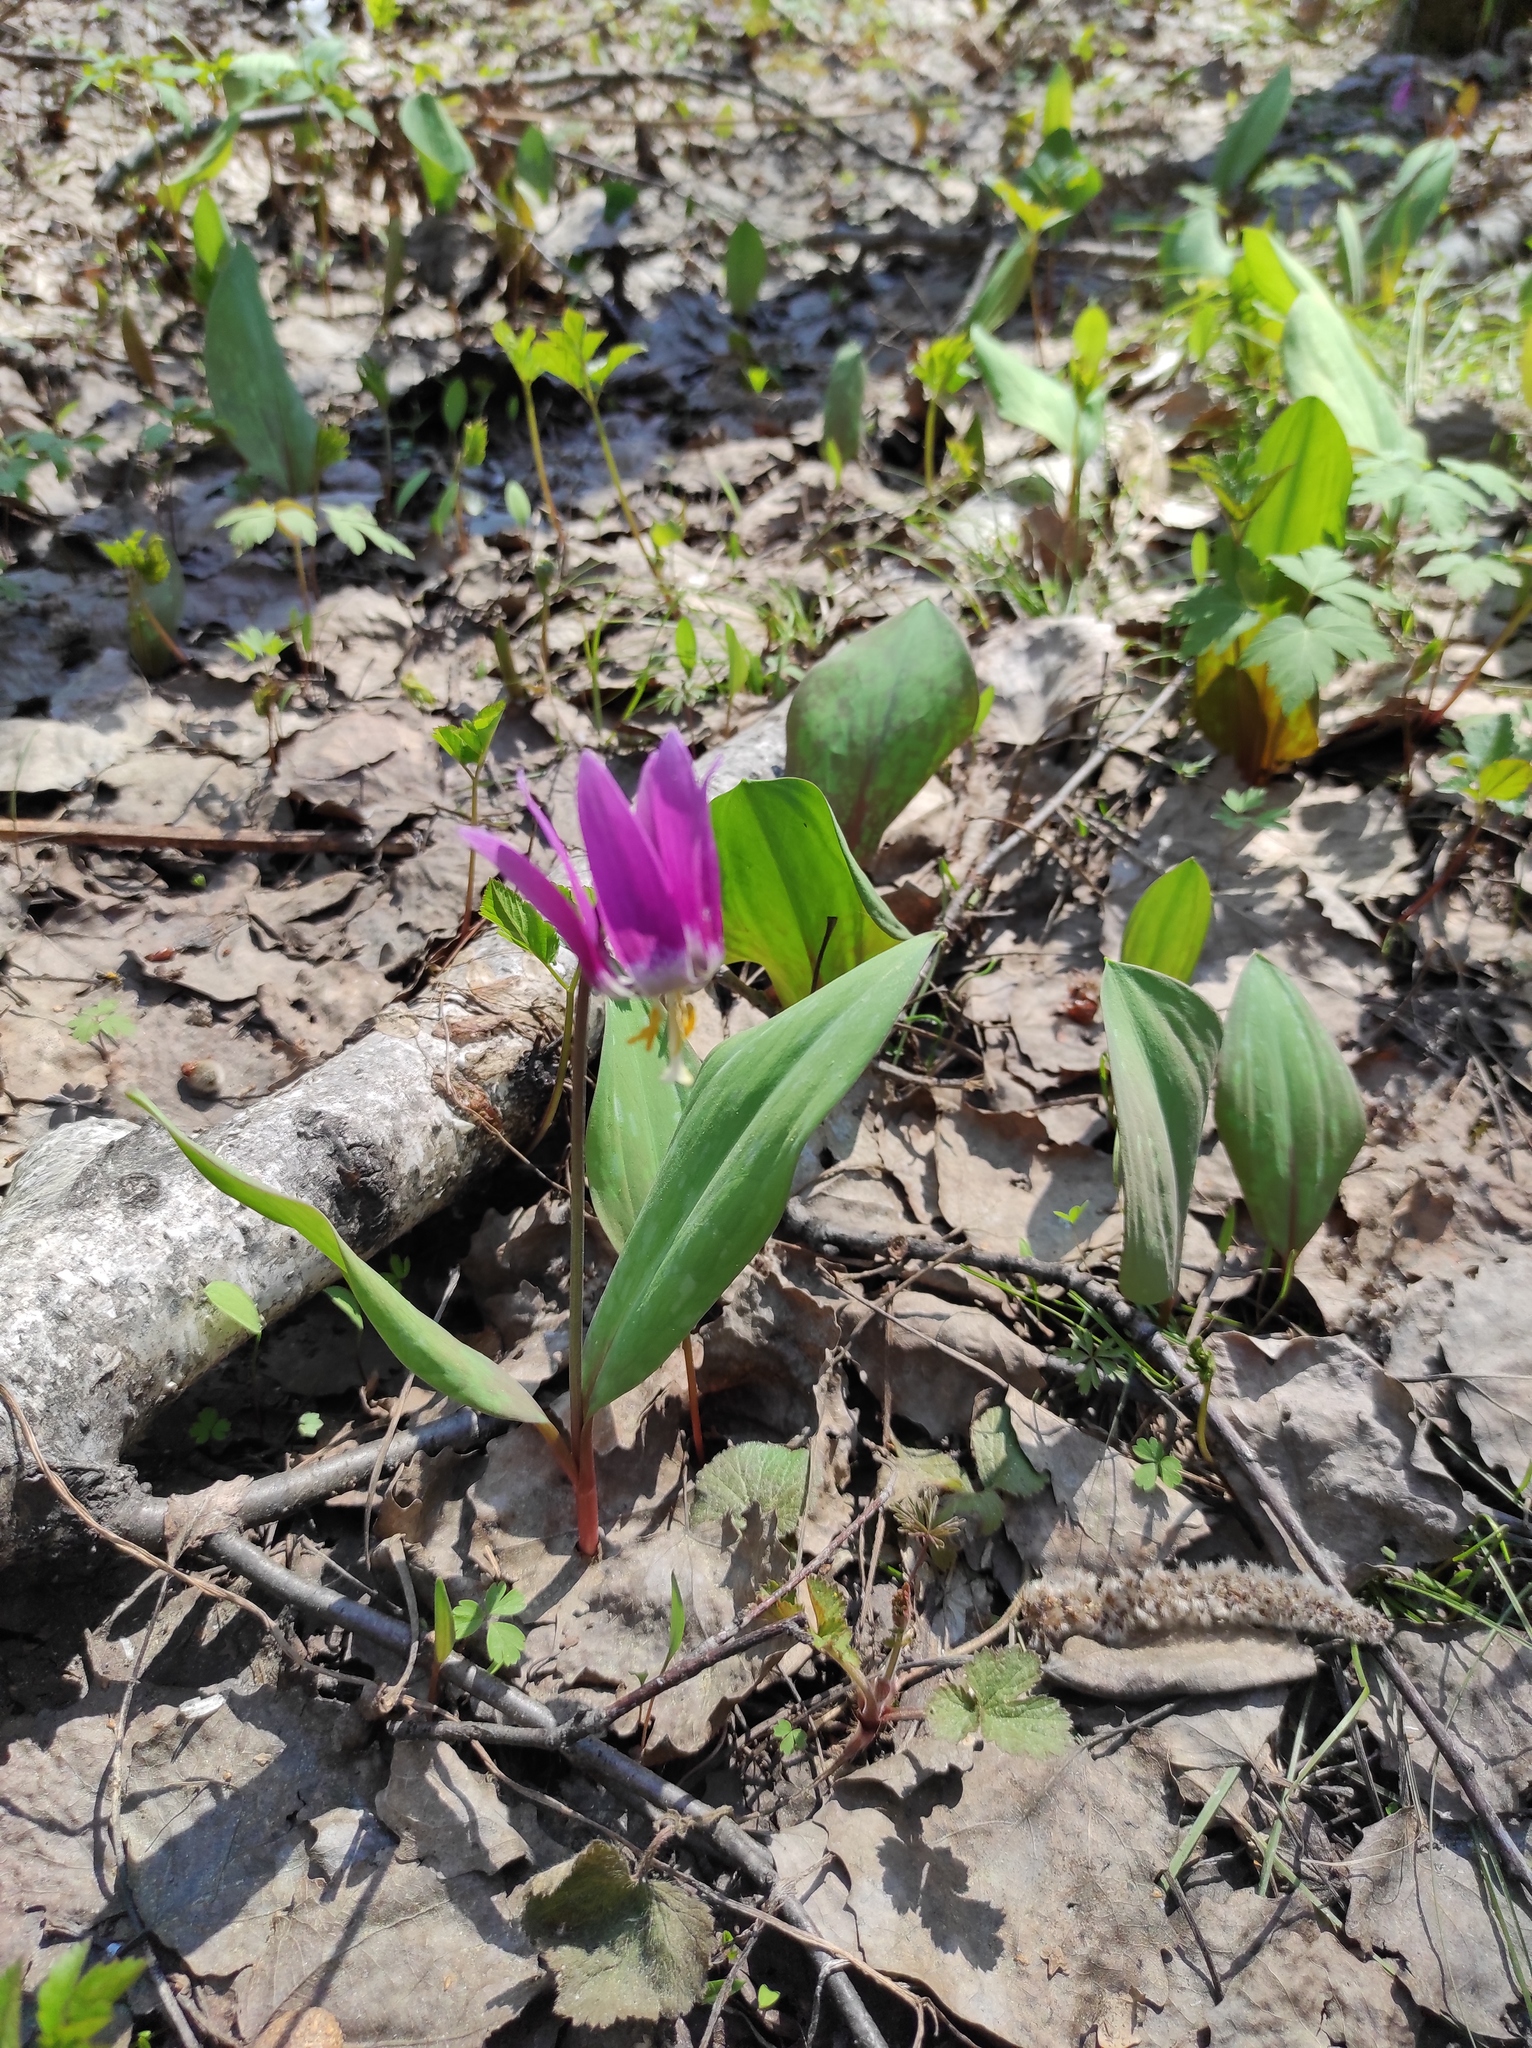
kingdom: Plantae
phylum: Tracheophyta
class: Liliopsida
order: Liliales
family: Liliaceae
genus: Erythronium
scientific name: Erythronium sibiricum
